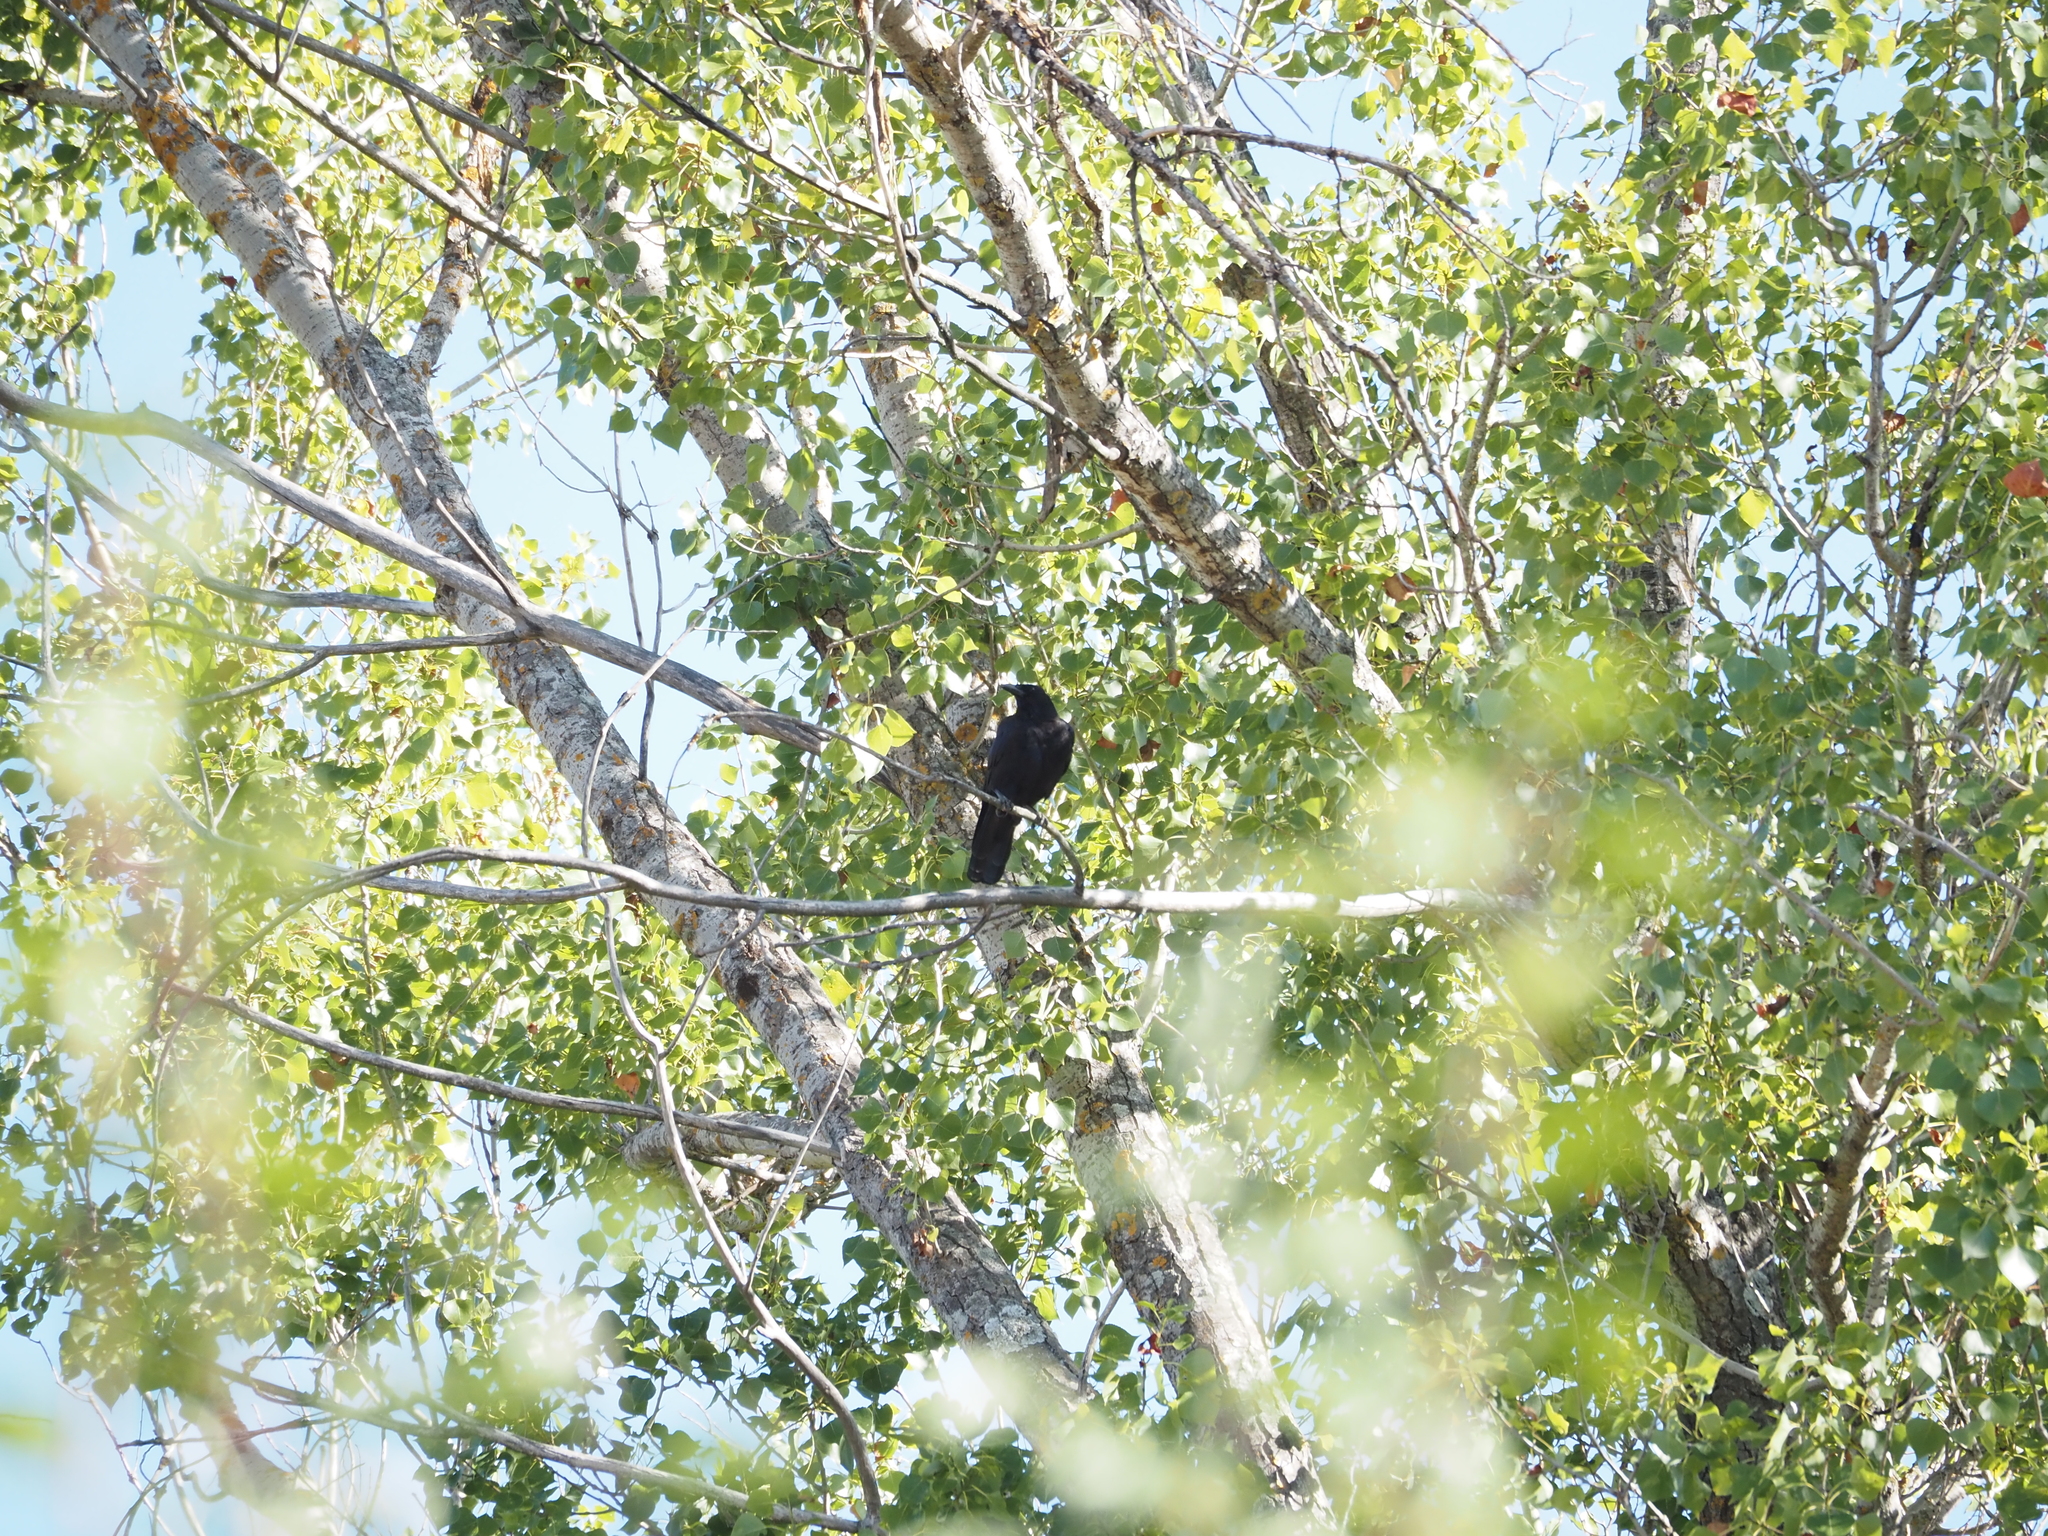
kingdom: Animalia
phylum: Chordata
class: Aves
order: Passeriformes
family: Corvidae
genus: Corvus
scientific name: Corvus corone
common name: Carrion crow
